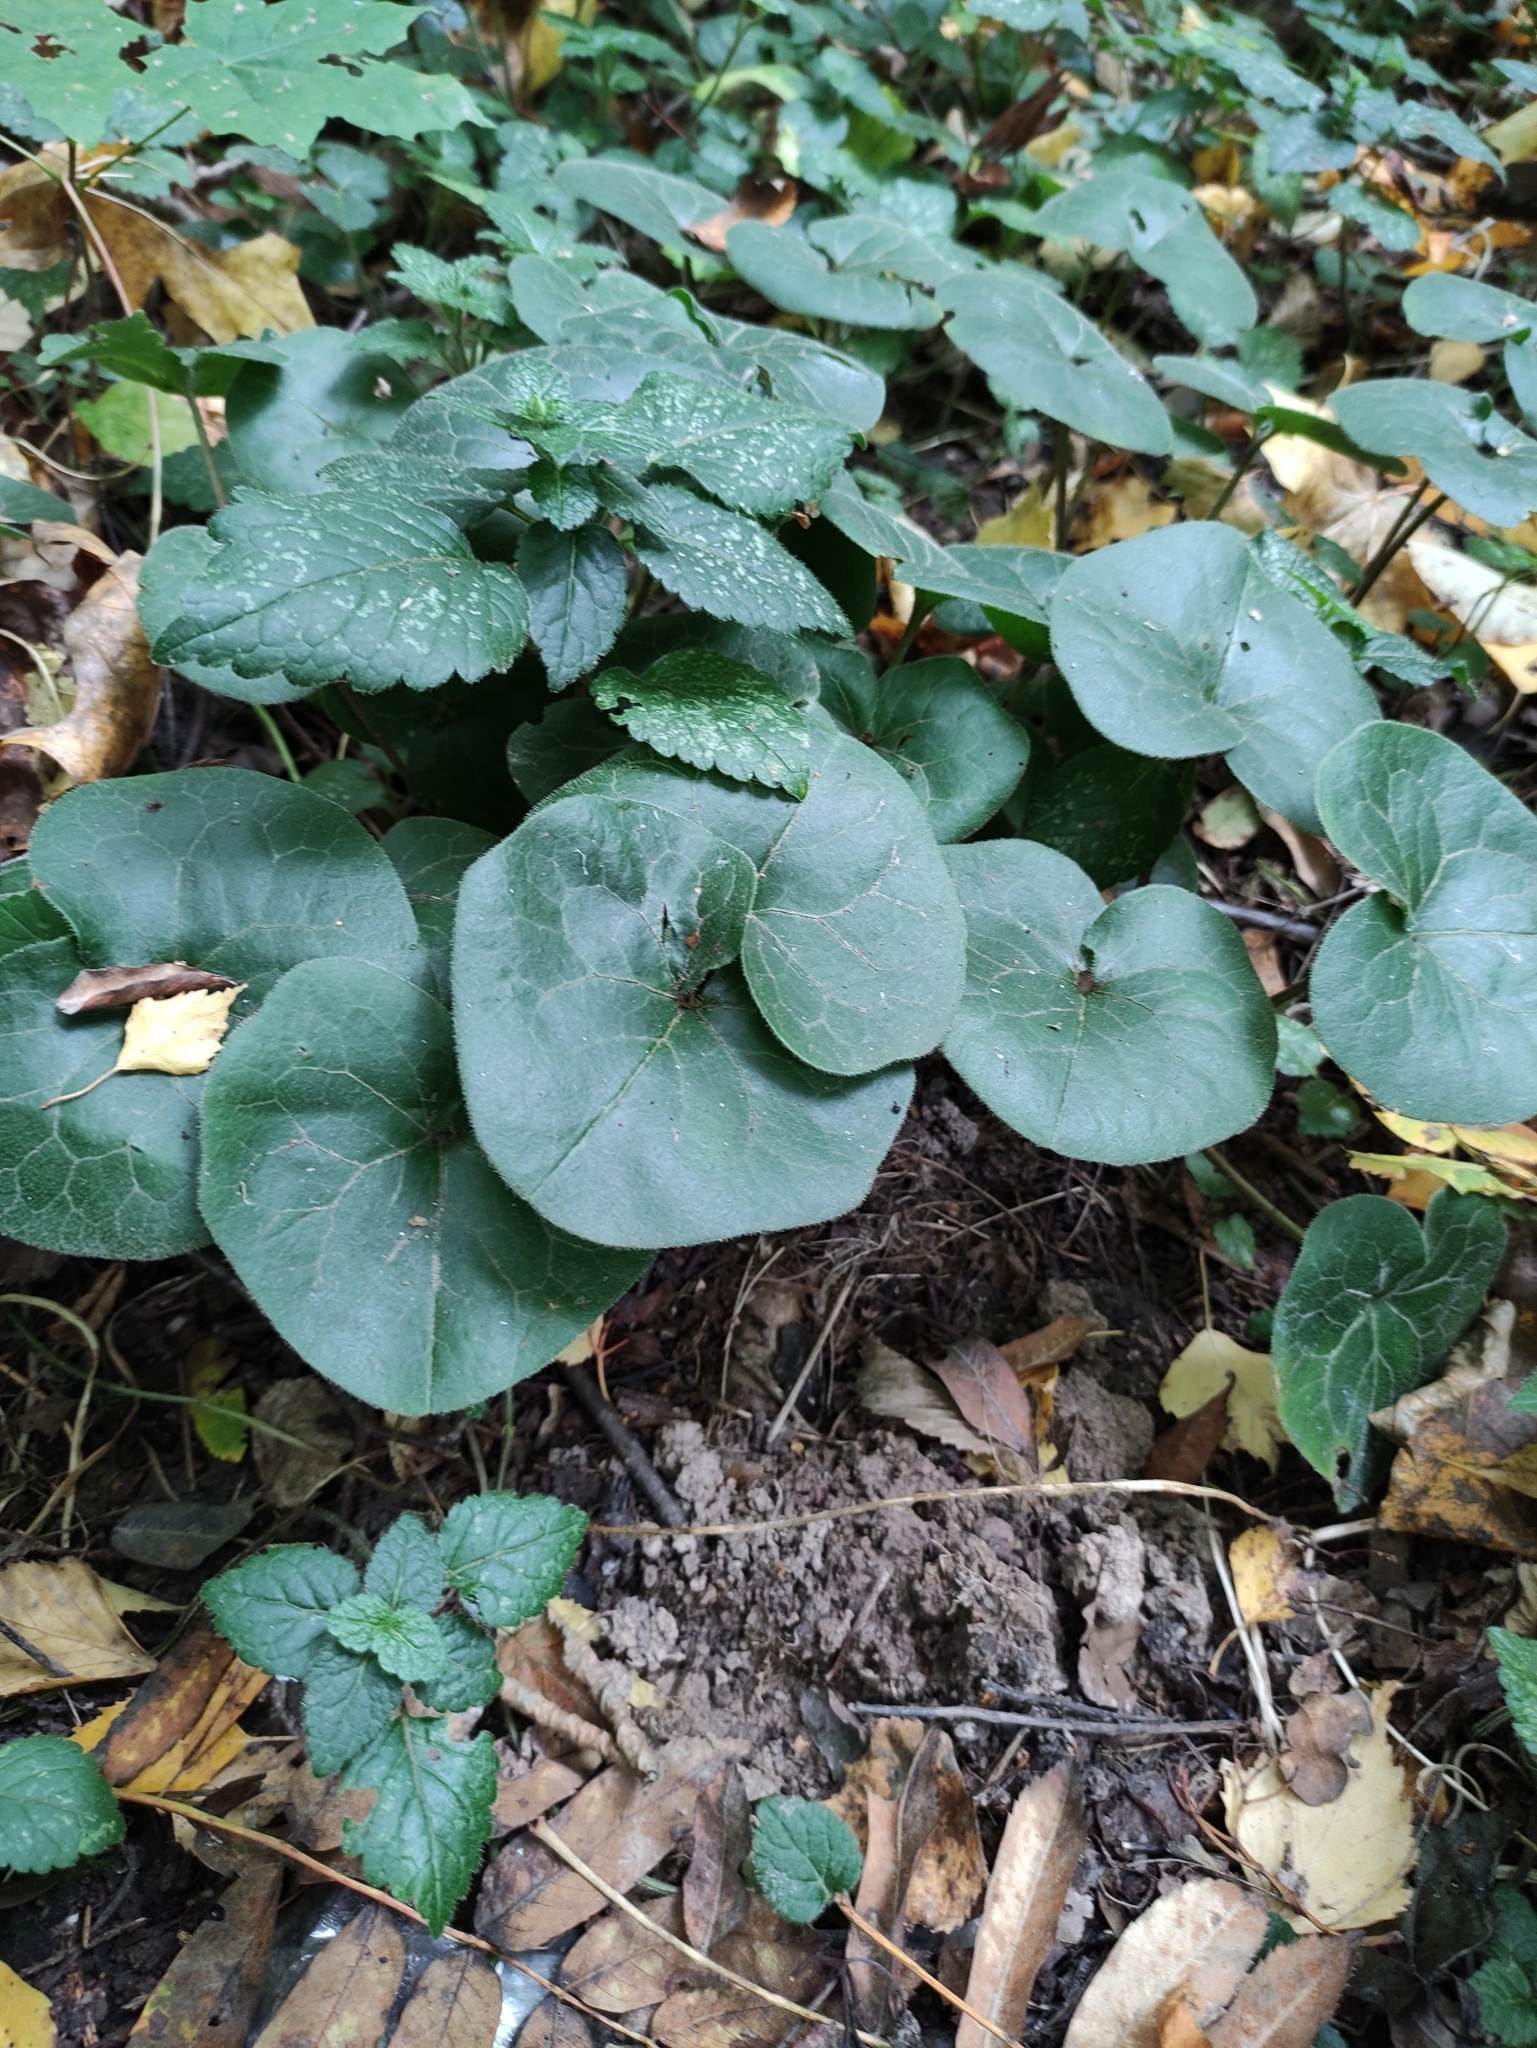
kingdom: Plantae
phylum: Tracheophyta
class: Magnoliopsida
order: Piperales
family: Aristolochiaceae
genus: Asarum
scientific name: Asarum europaeum
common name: Asarabacca
